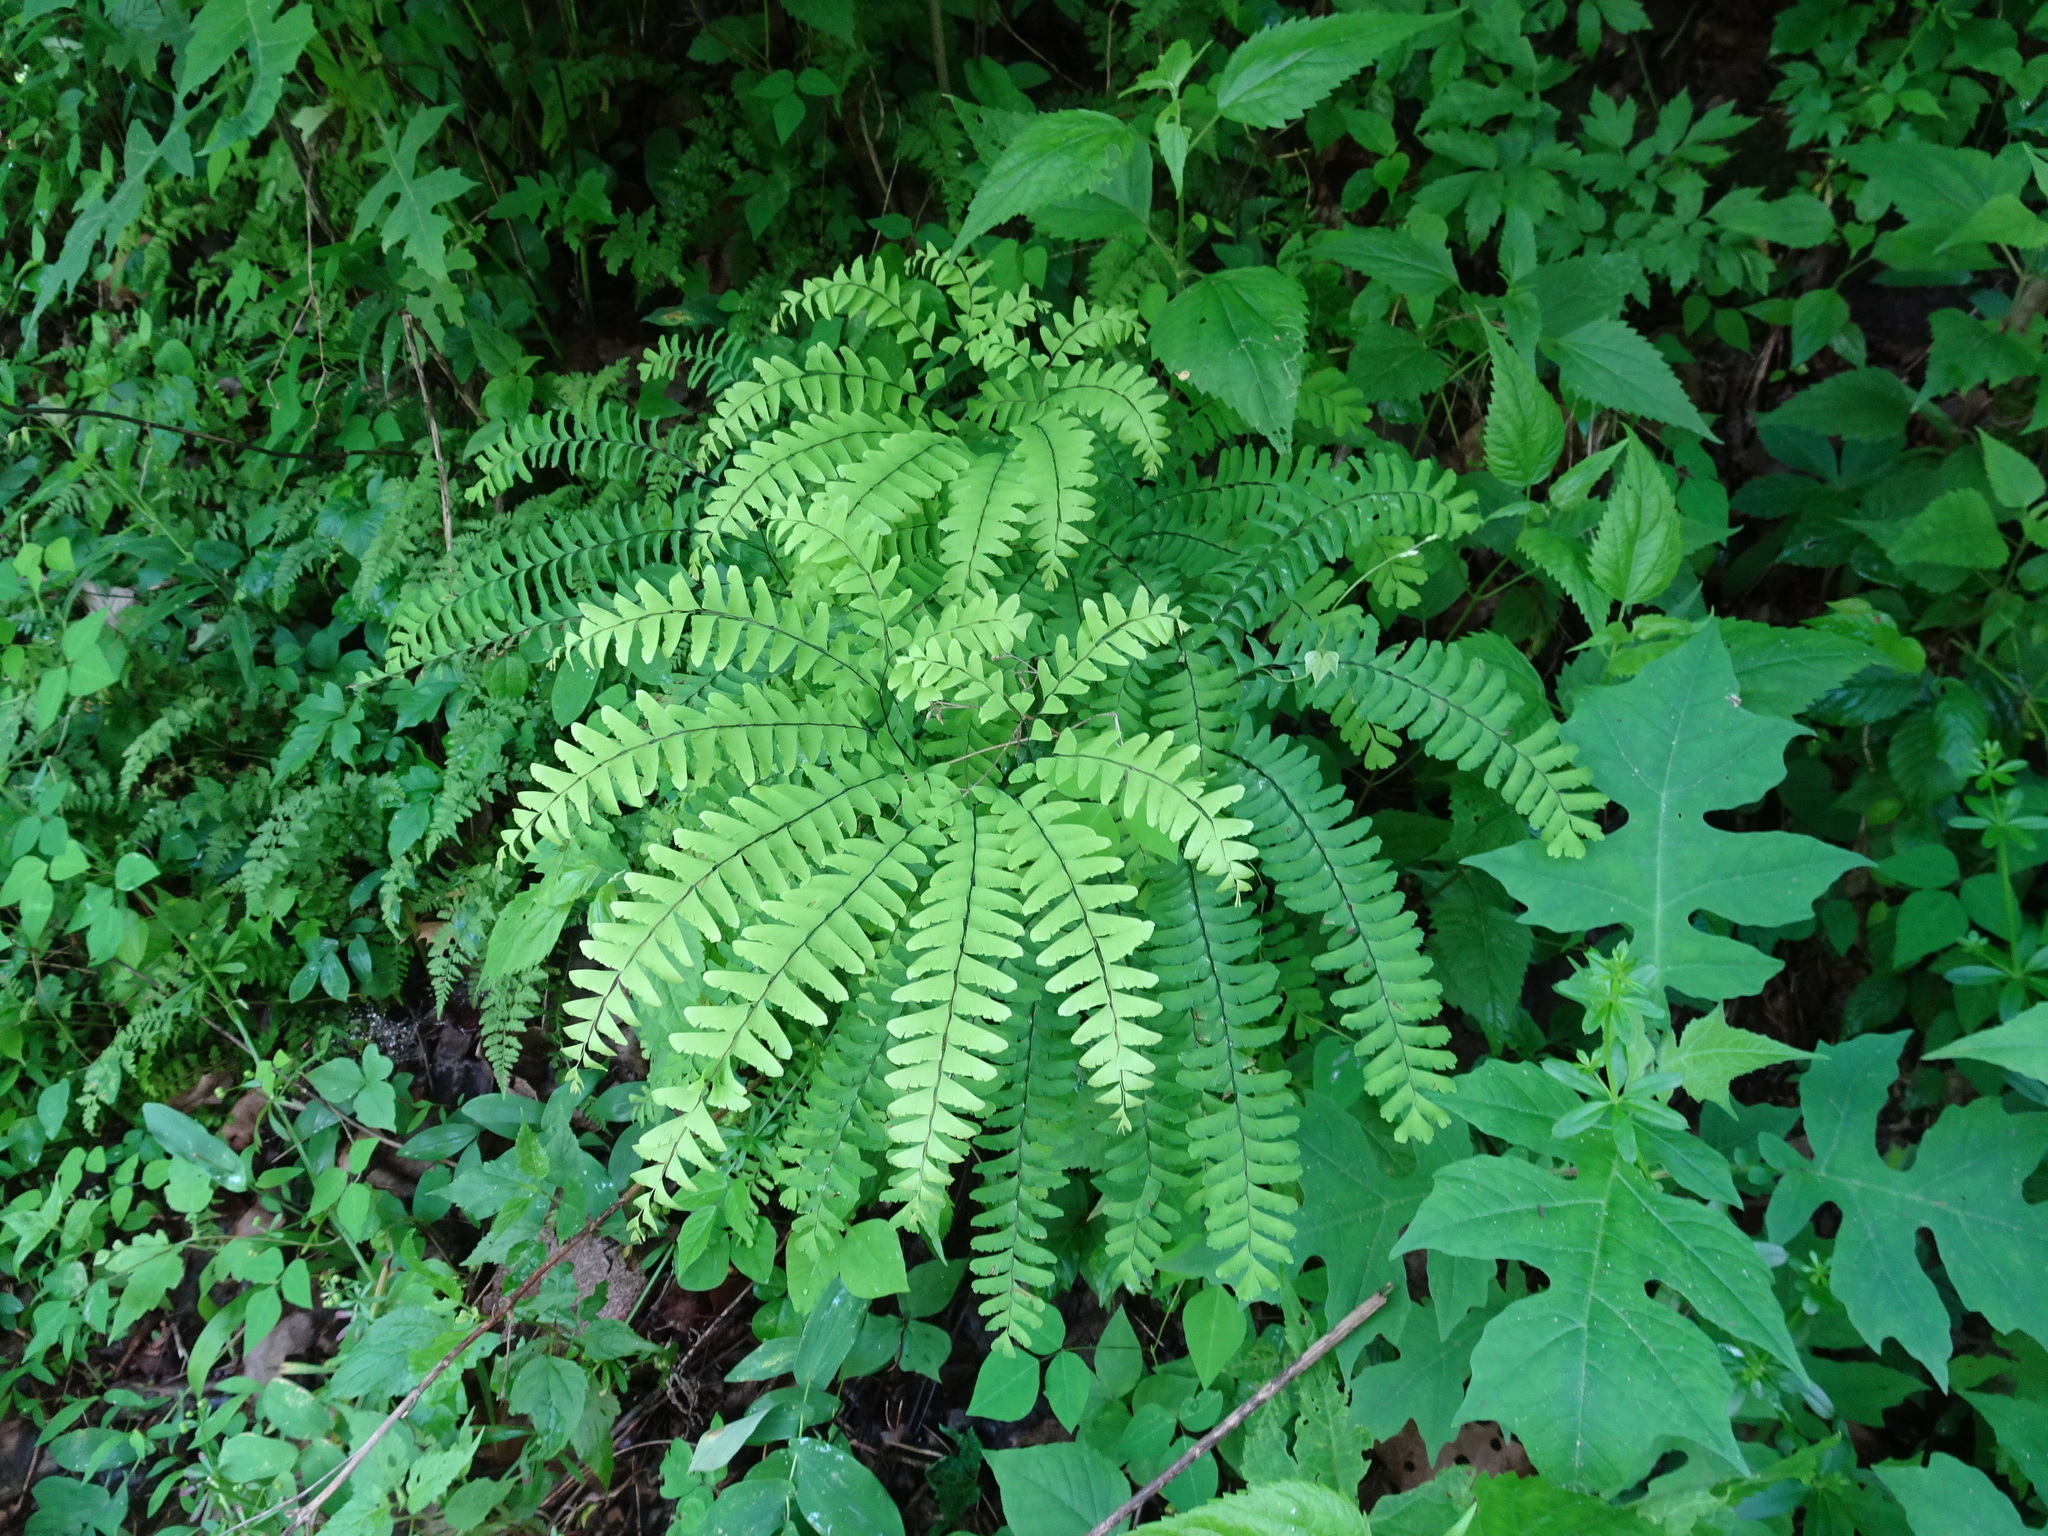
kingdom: Plantae
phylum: Tracheophyta
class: Polypodiopsida
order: Polypodiales
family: Pteridaceae
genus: Adiantum
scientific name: Adiantum pedatum
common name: Five-finger fern
